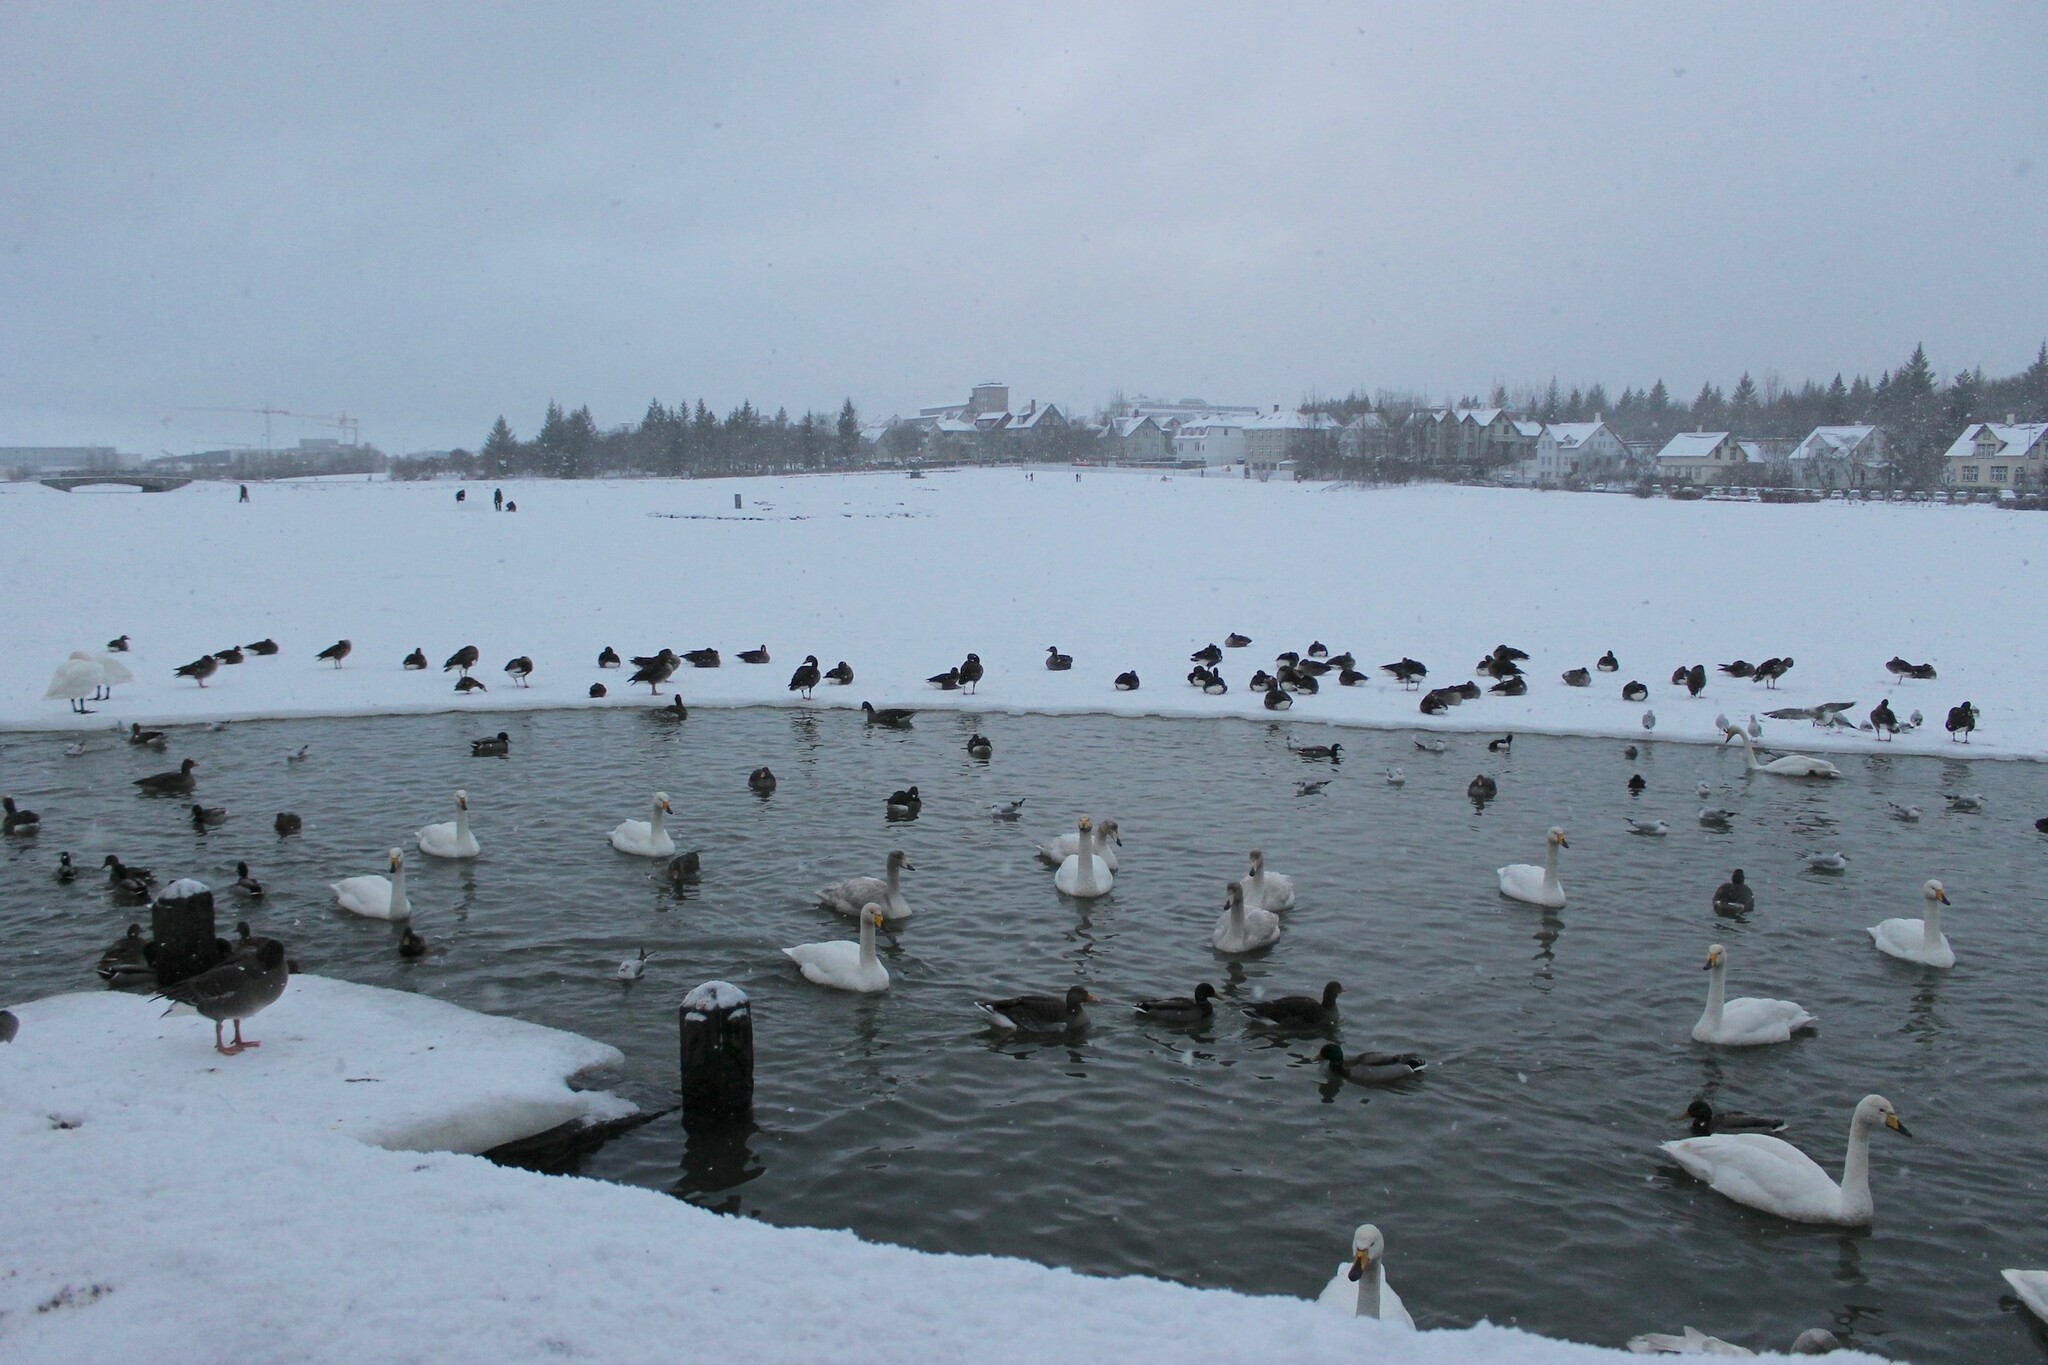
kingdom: Animalia
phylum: Chordata
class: Aves
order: Anseriformes
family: Anatidae
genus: Aythya
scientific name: Aythya fuligula
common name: Tufted duck
